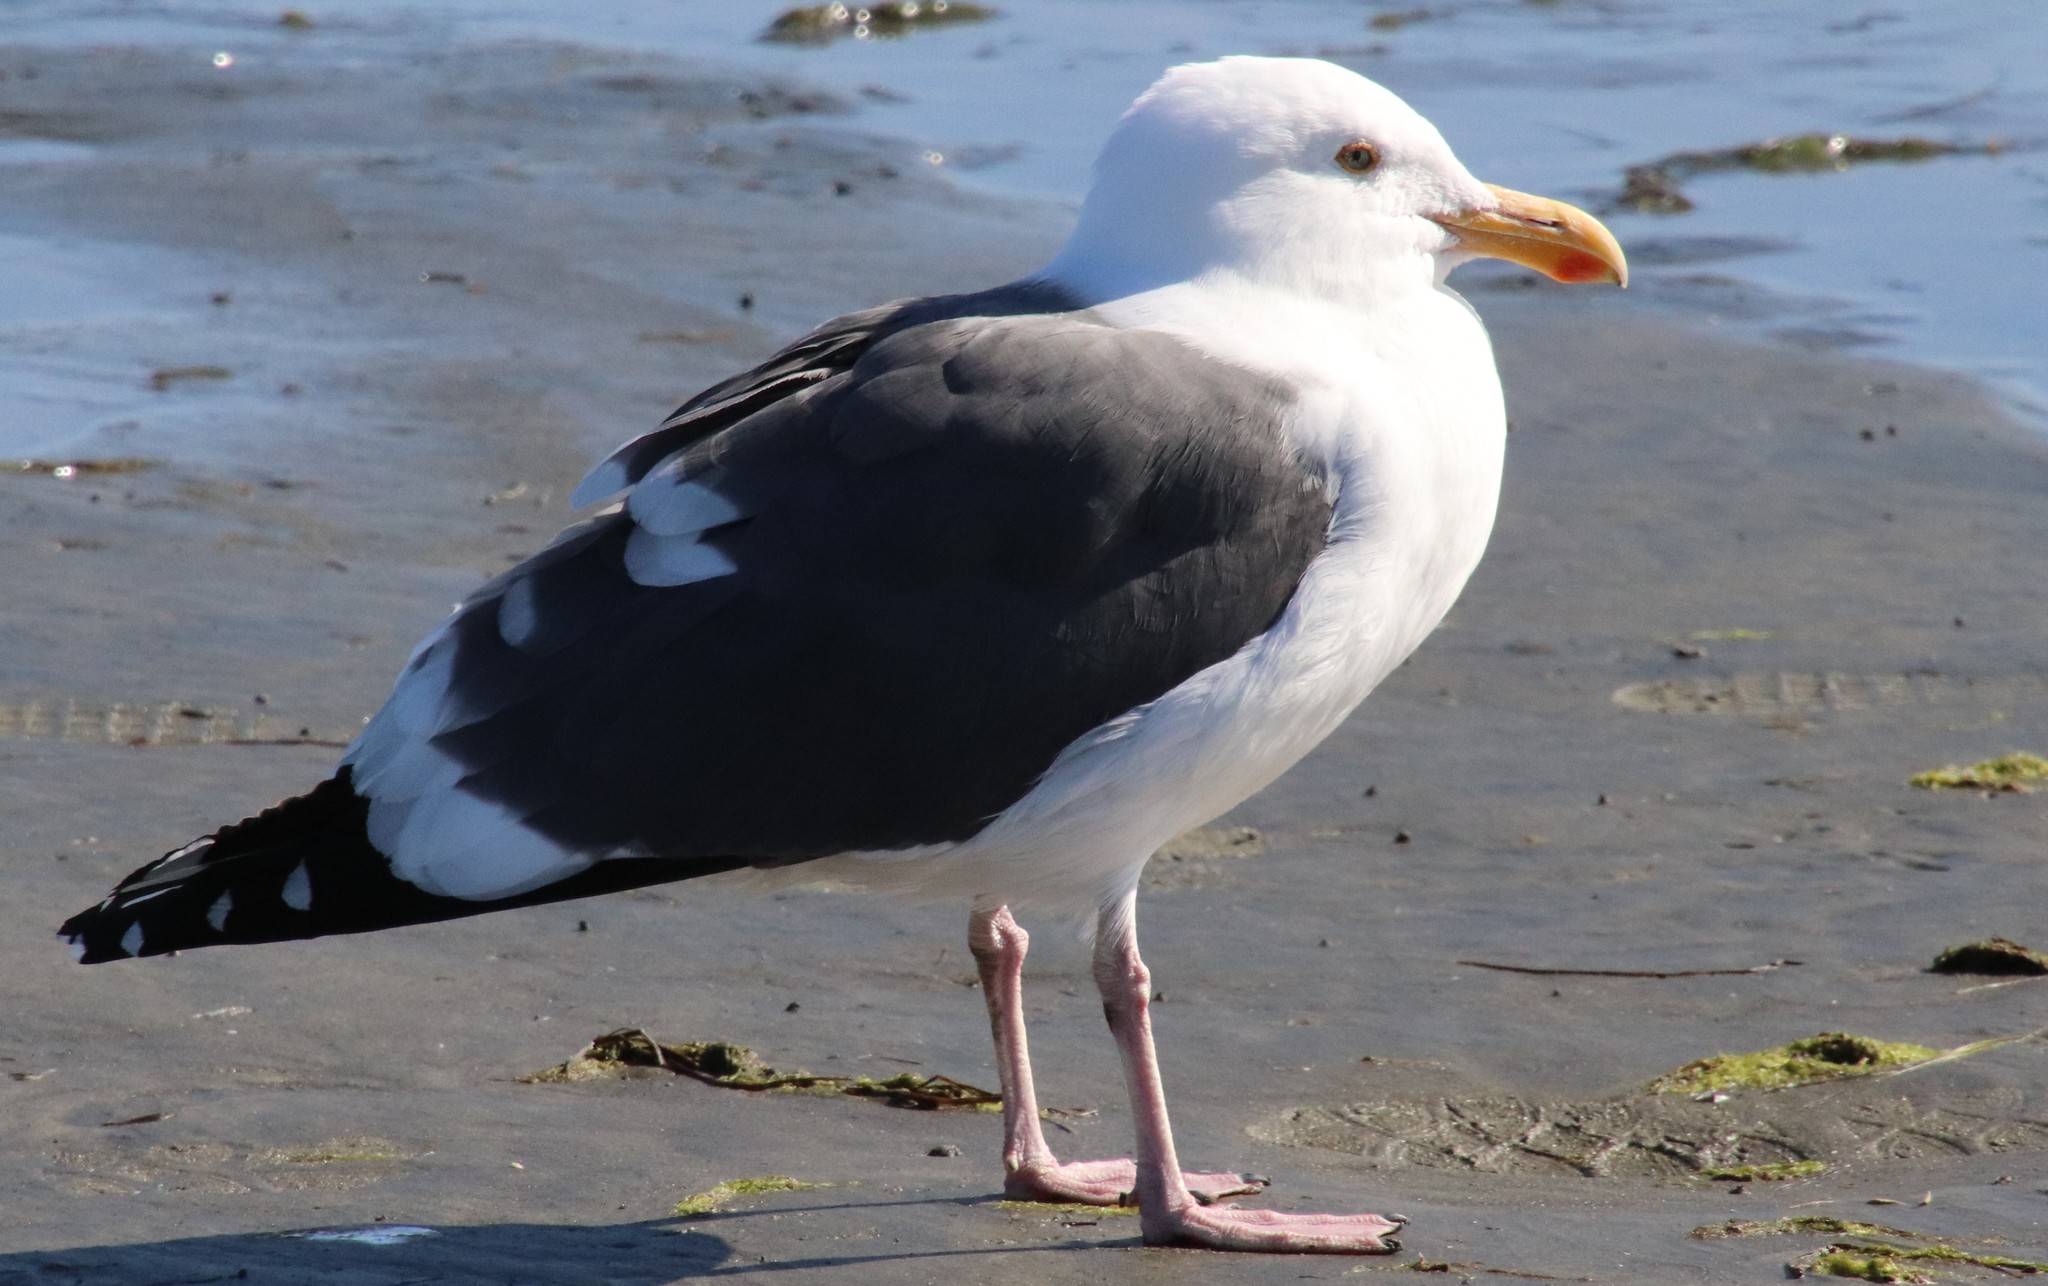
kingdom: Animalia
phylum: Chordata
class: Aves
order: Charadriiformes
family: Laridae
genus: Larus
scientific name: Larus occidentalis
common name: Western gull
